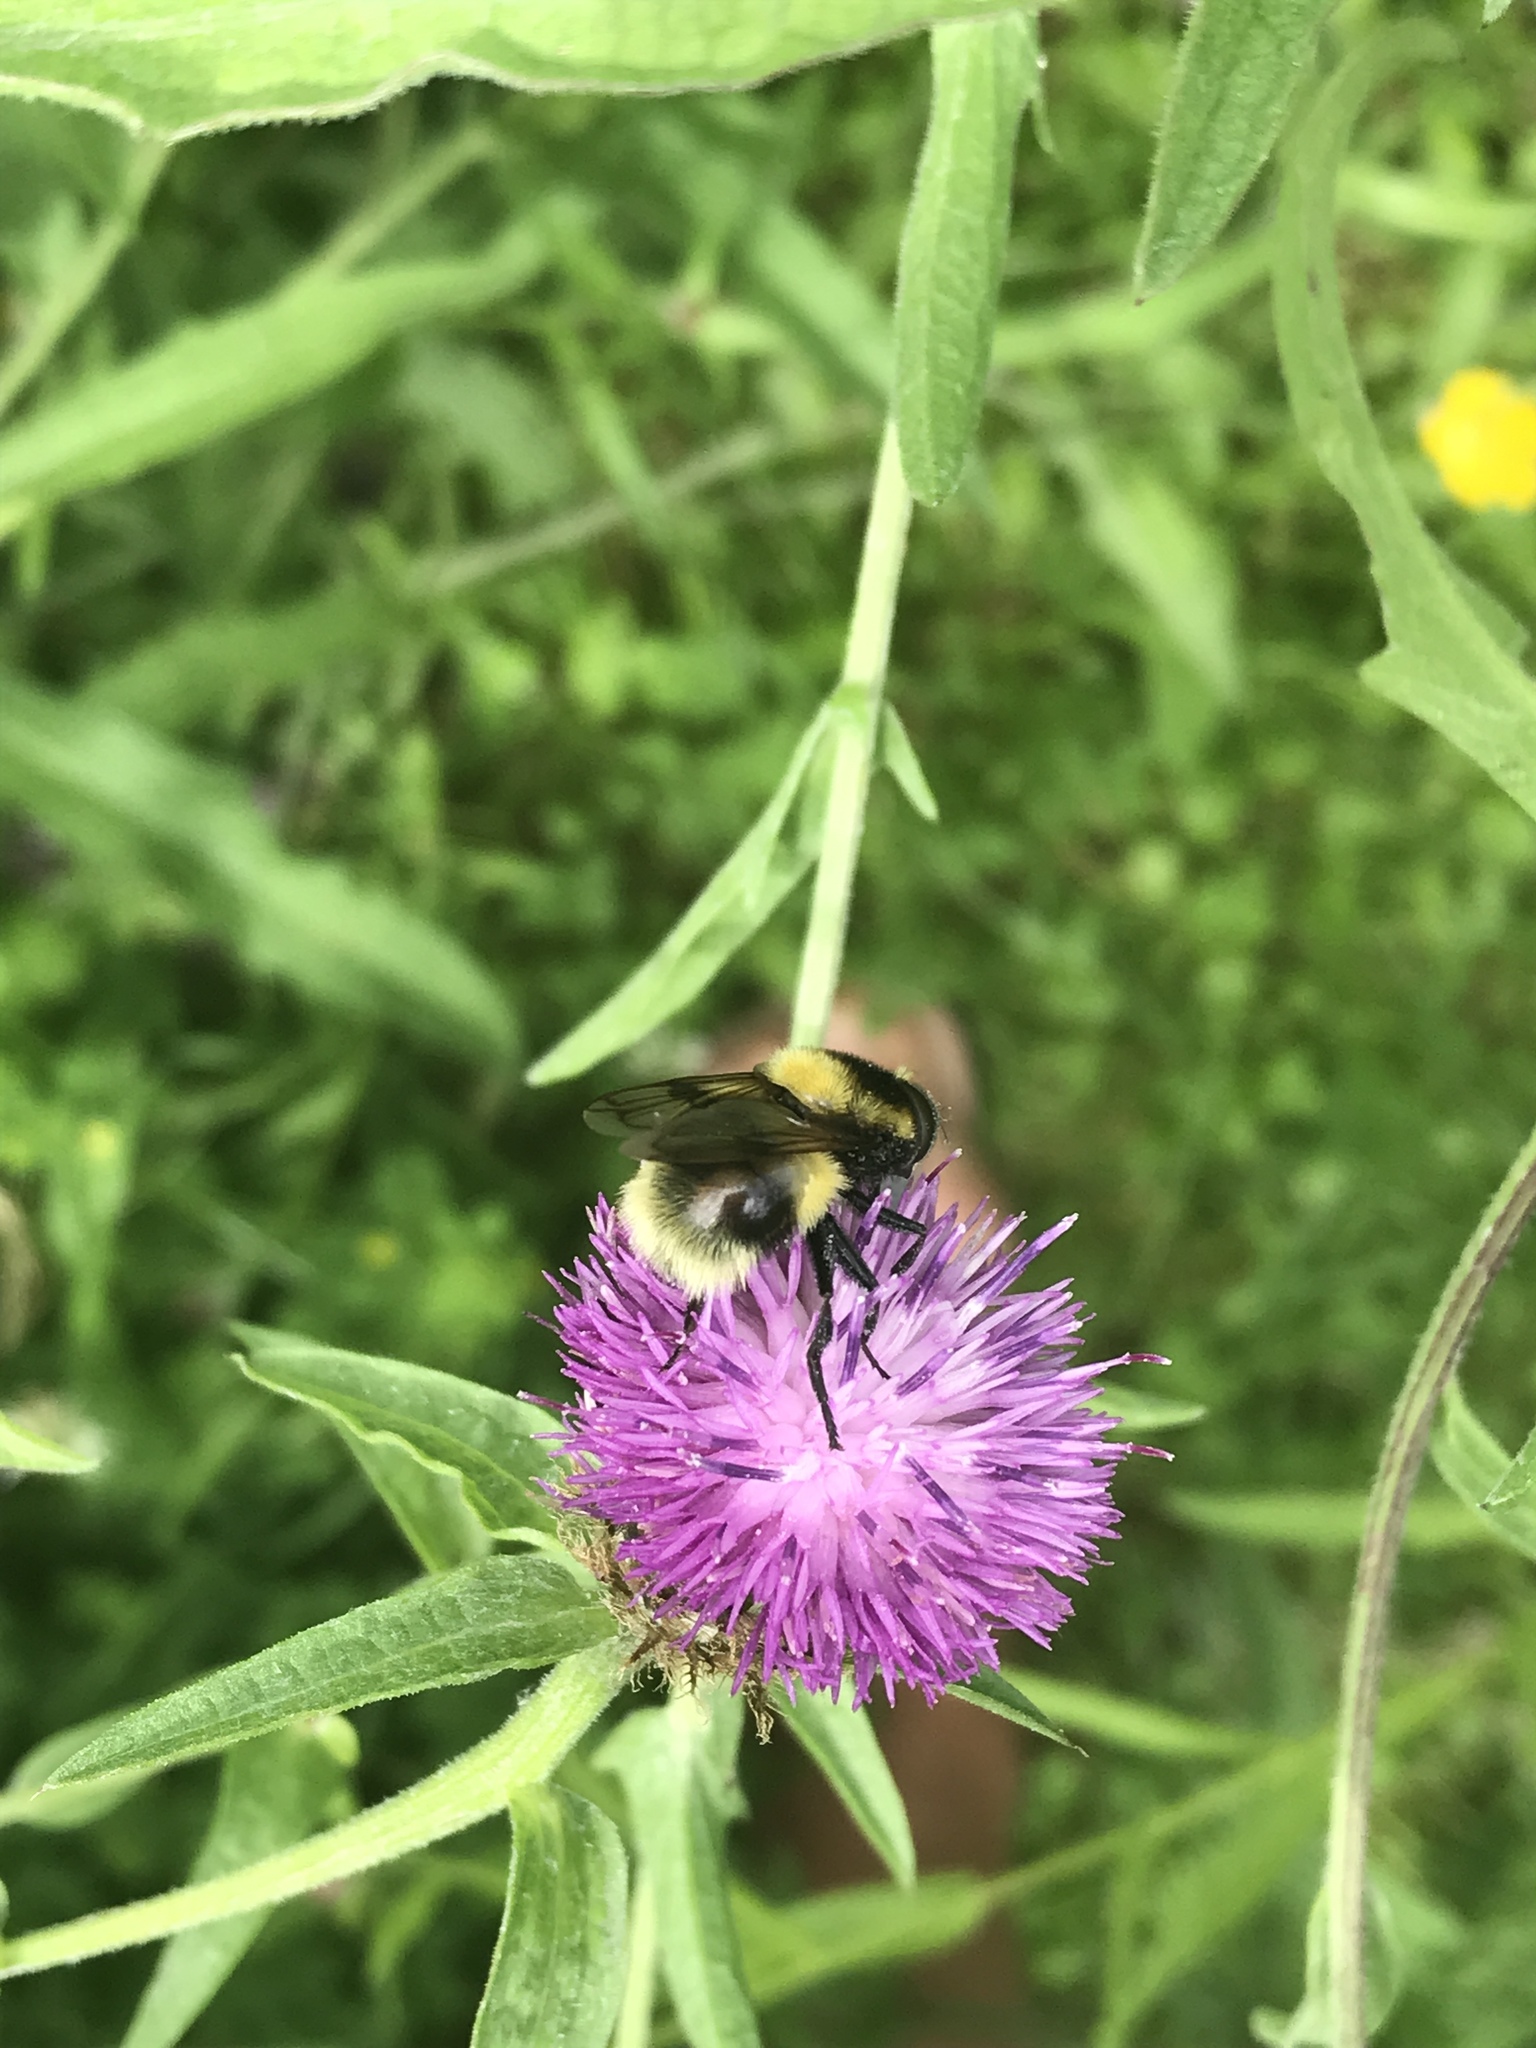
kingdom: Animalia
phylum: Arthropoda
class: Insecta
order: Diptera
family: Syrphidae
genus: Volucella
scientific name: Volucella bombylans
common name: Bumble bee hover fly
